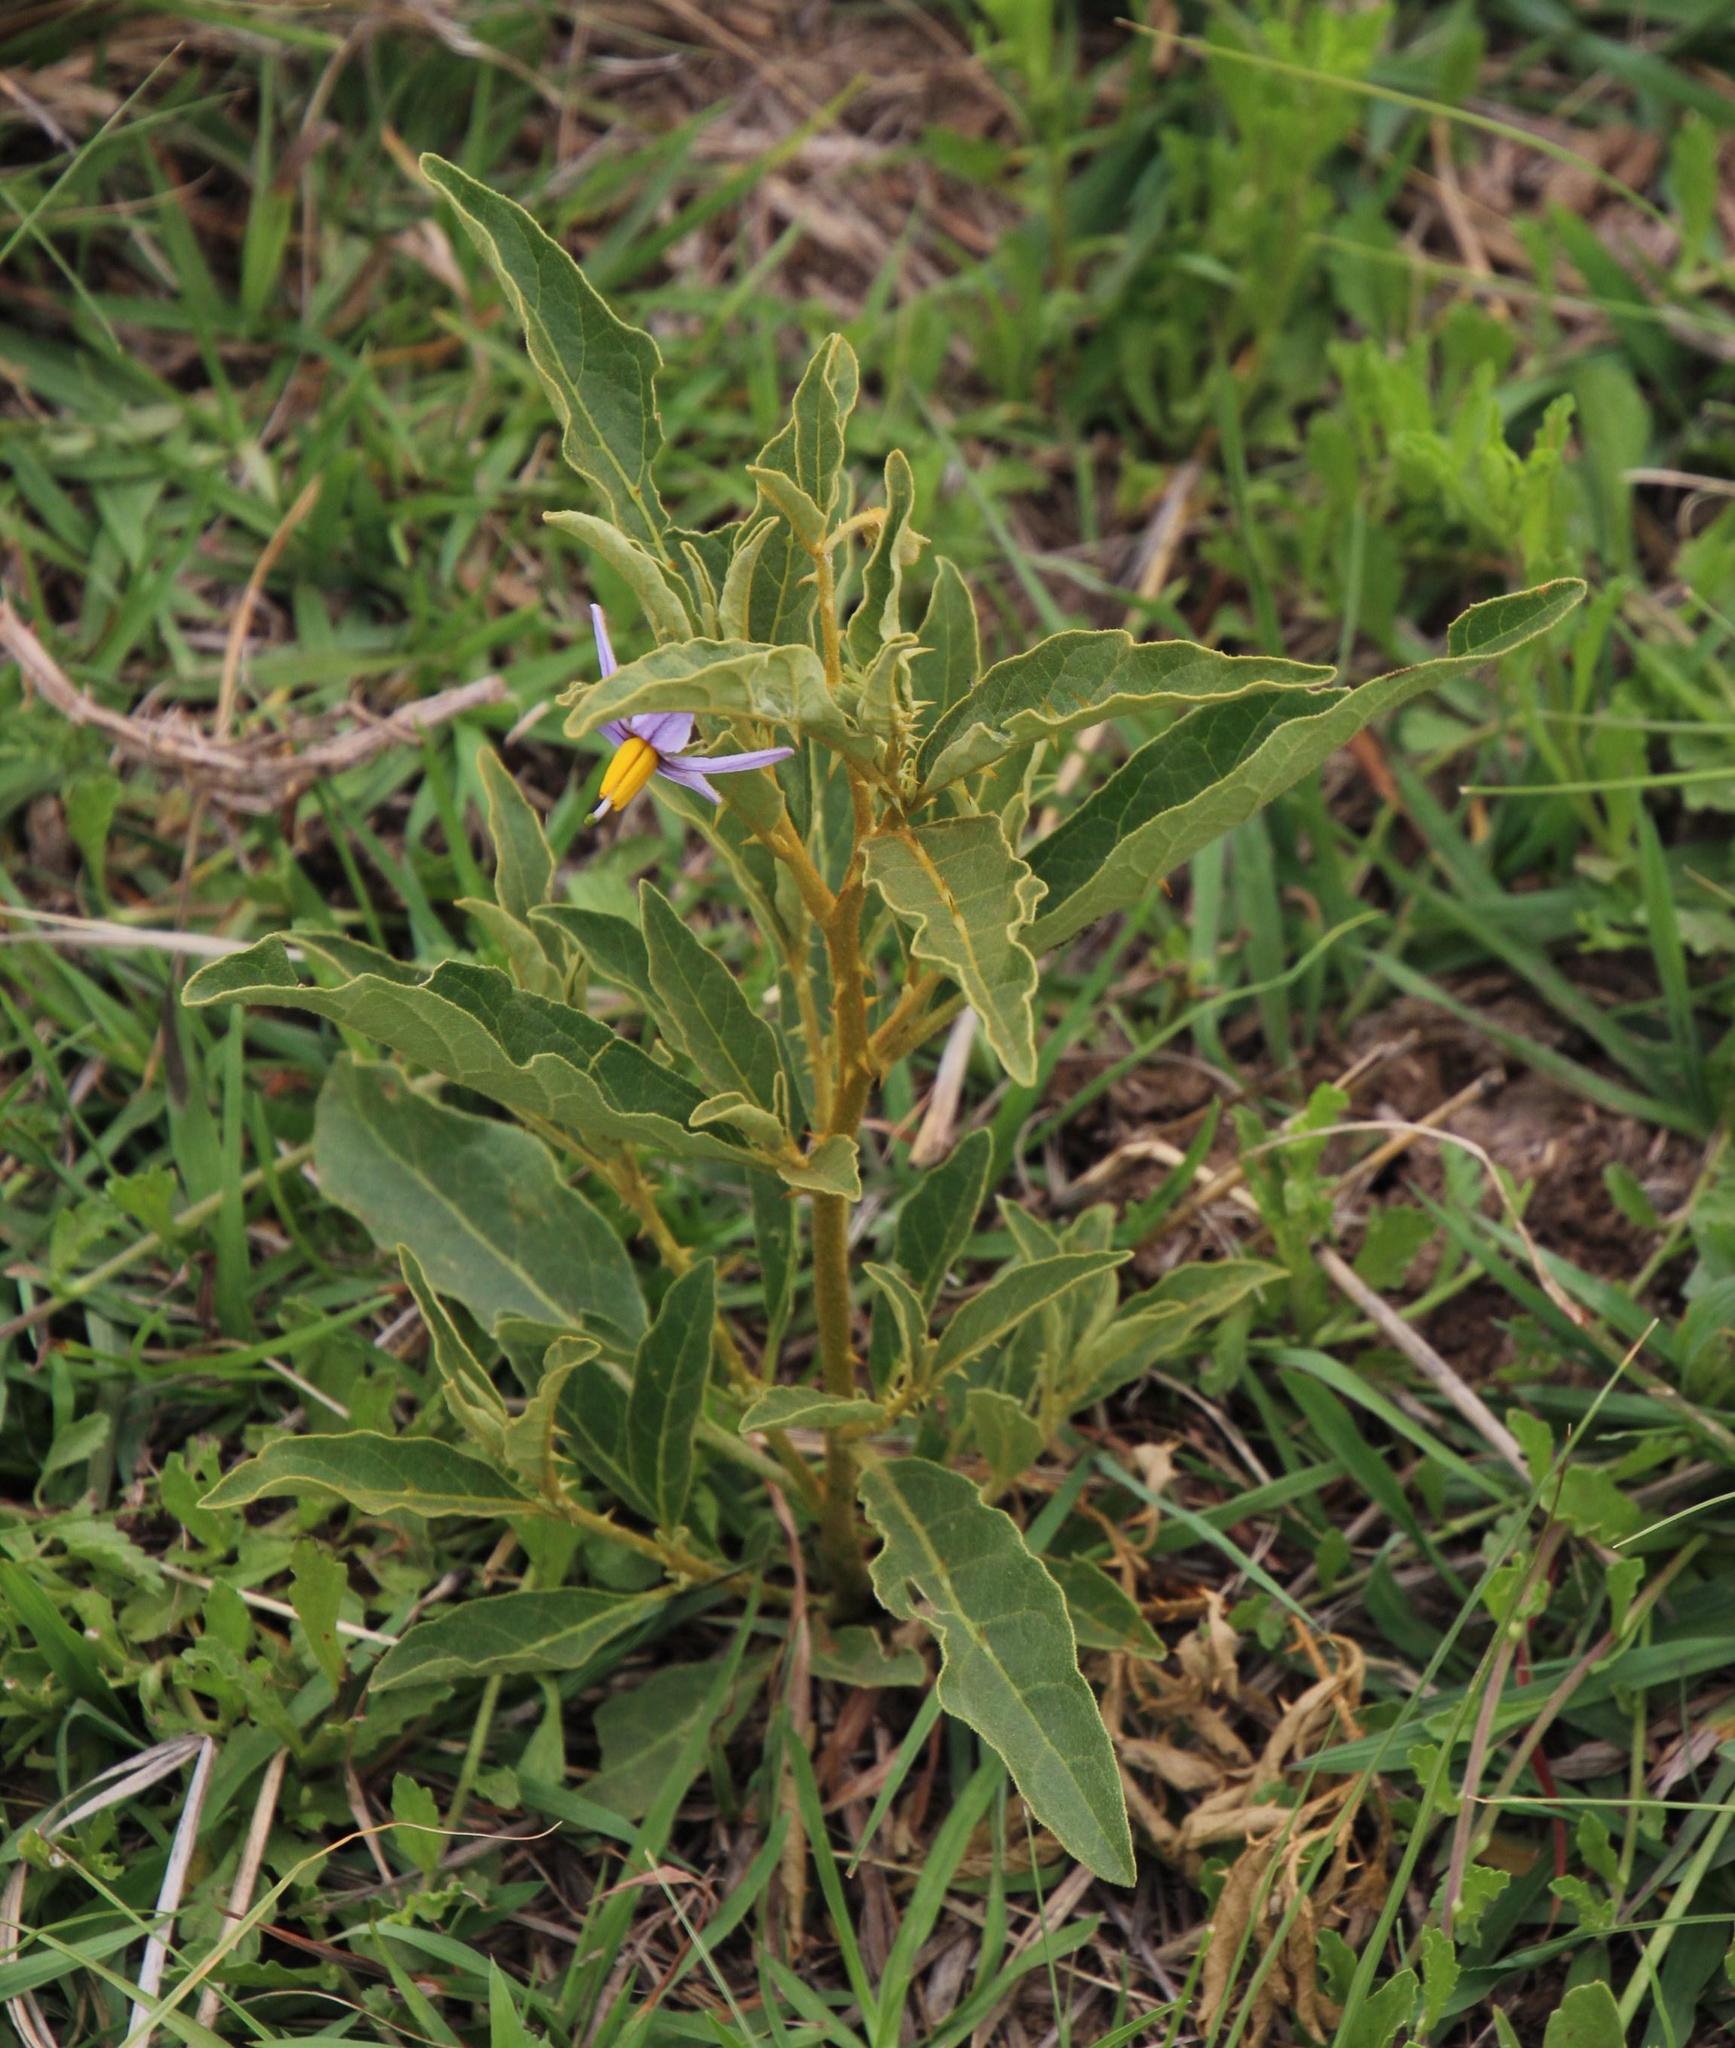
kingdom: Plantae
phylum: Tracheophyta
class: Magnoliopsida
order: Solanales
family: Solanaceae
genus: Solanum
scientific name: Solanum campylacanthum
